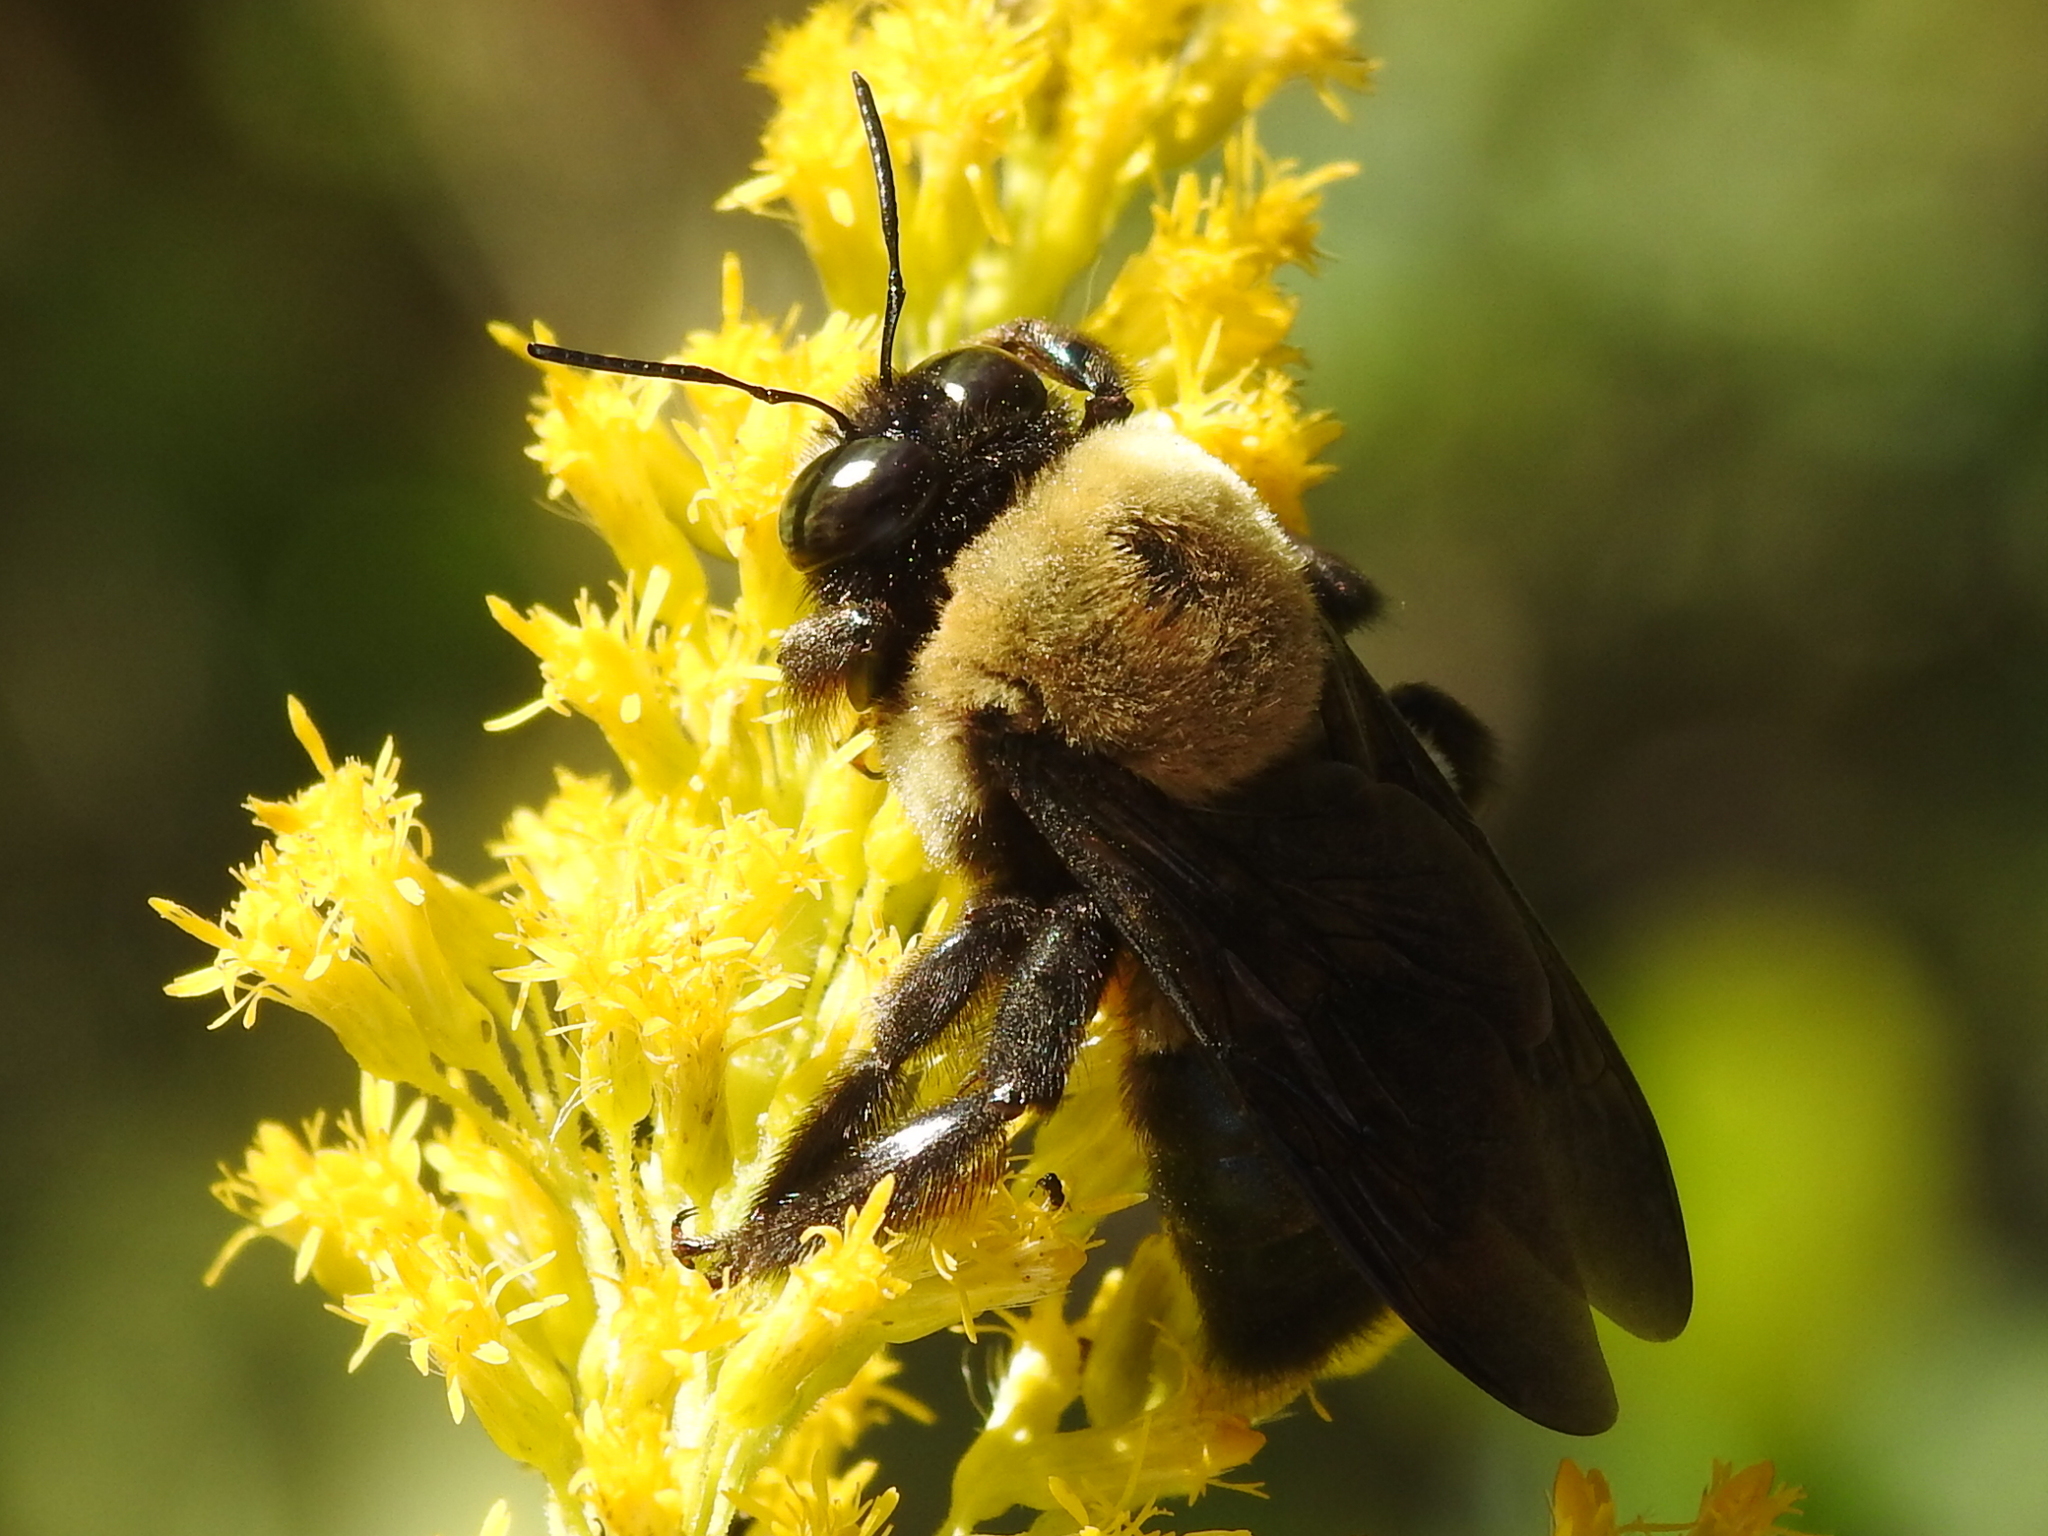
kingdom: Animalia
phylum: Arthropoda
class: Insecta
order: Hymenoptera
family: Apidae
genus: Xylocopa
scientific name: Xylocopa virginica
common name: Carpenter bee
